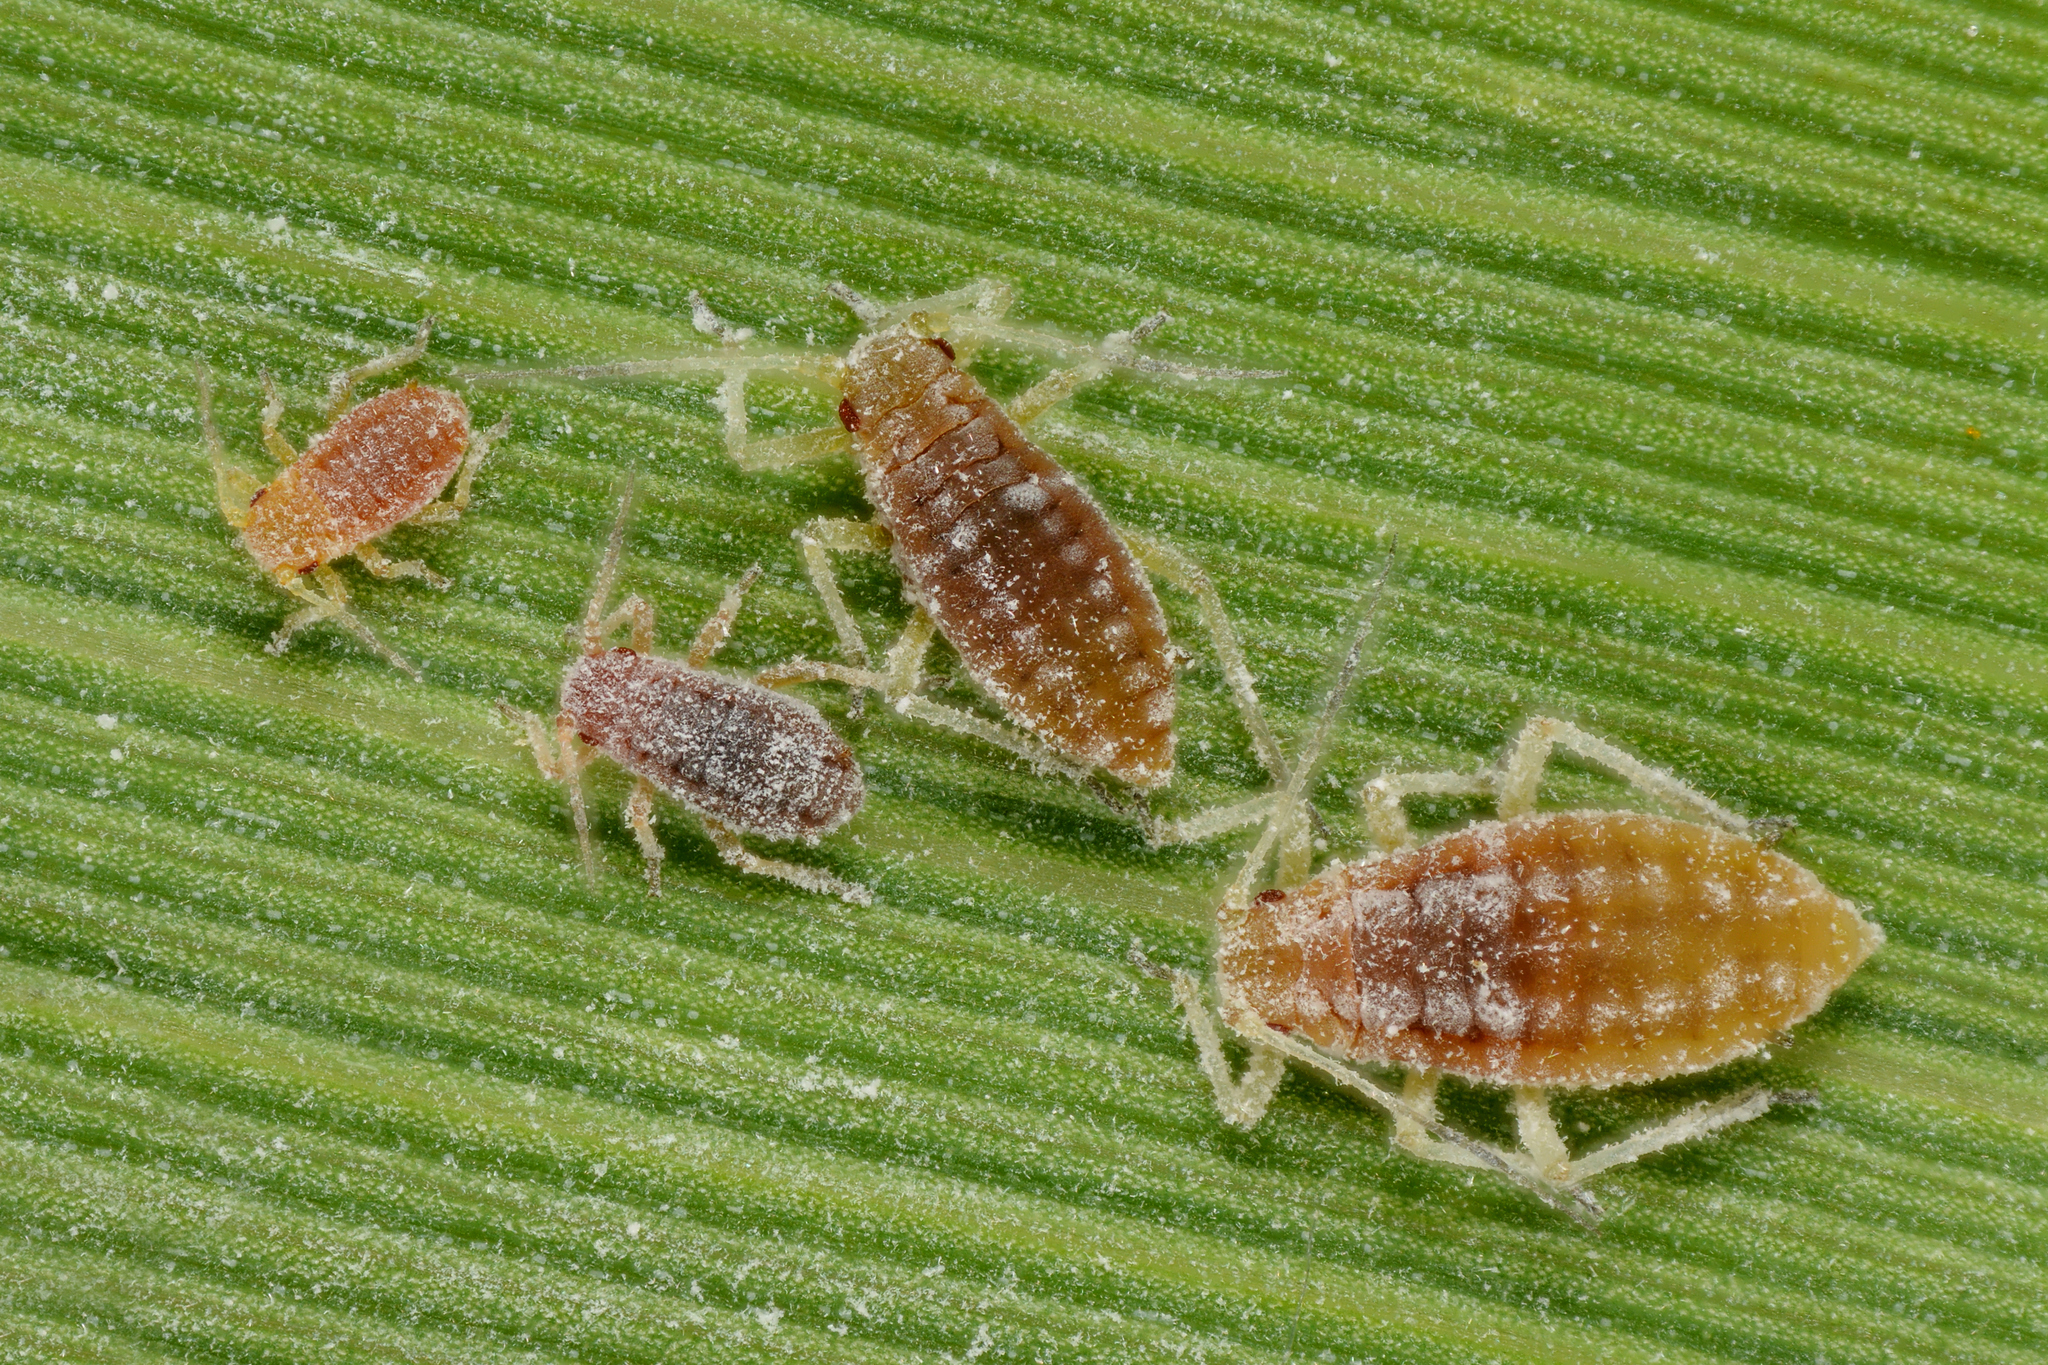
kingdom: Animalia
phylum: Arthropoda
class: Insecta
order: Hemiptera
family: Aphididae
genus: Hyalopterus
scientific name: Hyalopterus pruni
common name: Mealy plum aphid
